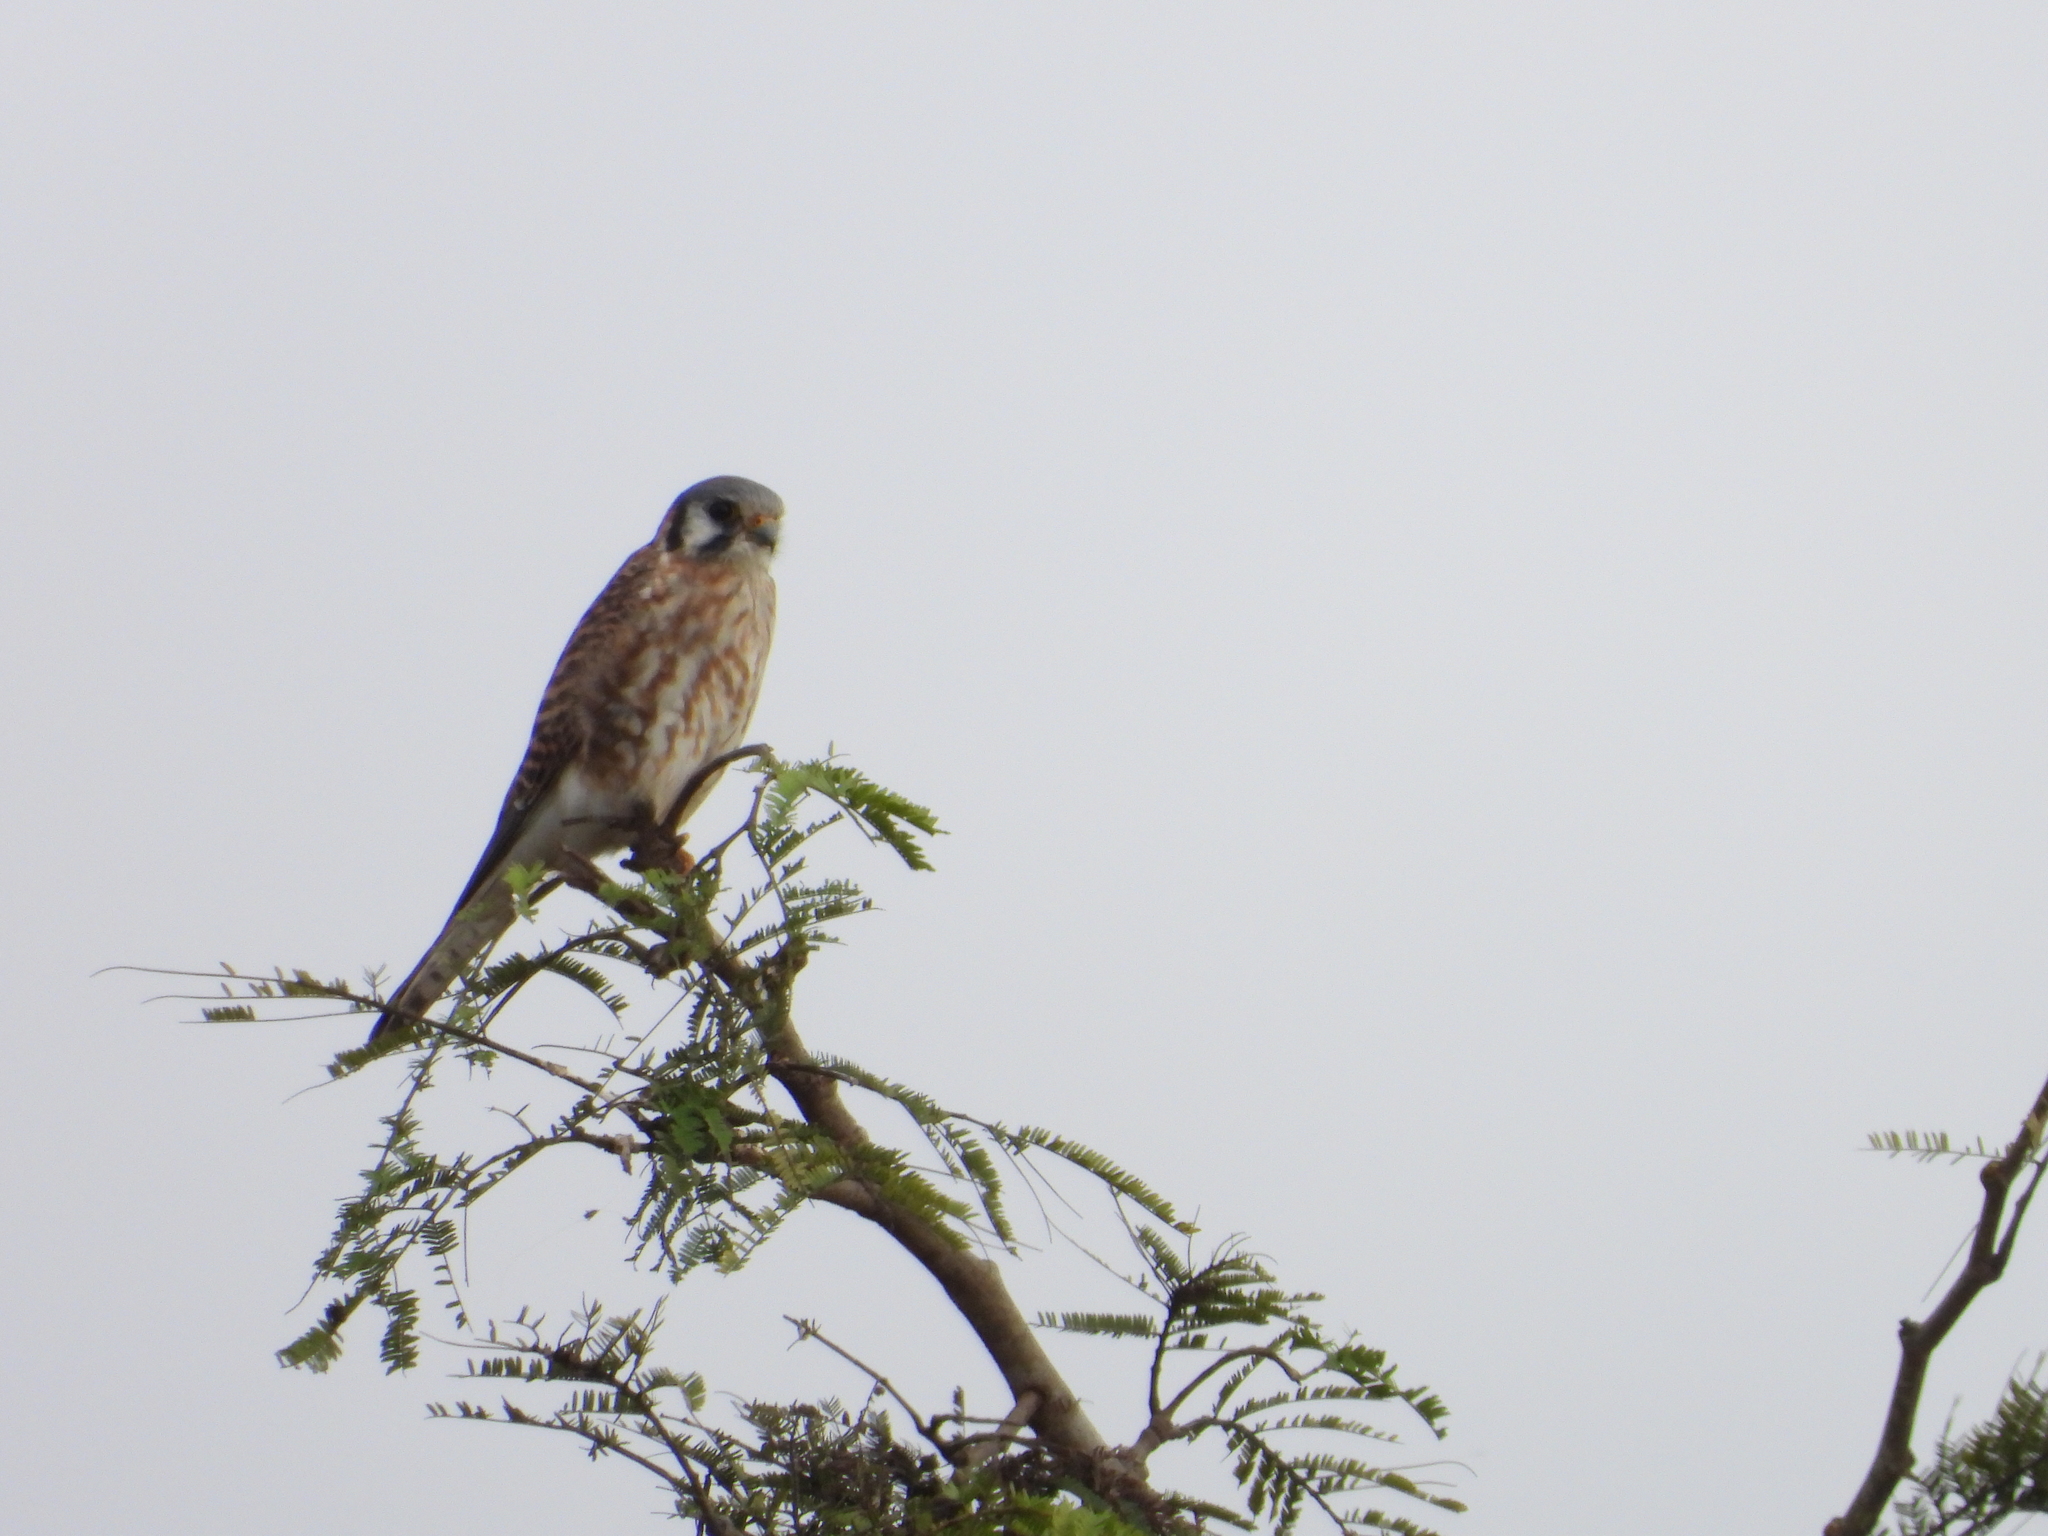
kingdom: Animalia
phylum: Chordata
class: Aves
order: Falconiformes
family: Falconidae
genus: Falco
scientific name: Falco sparverius
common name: American kestrel
